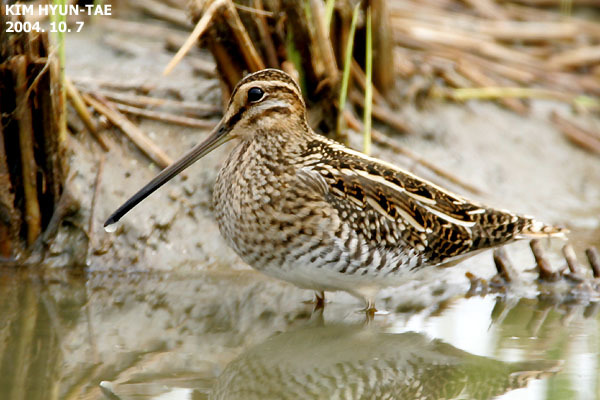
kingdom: Animalia
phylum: Chordata
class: Aves
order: Charadriiformes
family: Scolopacidae
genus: Gallinago
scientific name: Gallinago gallinago
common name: Common snipe
